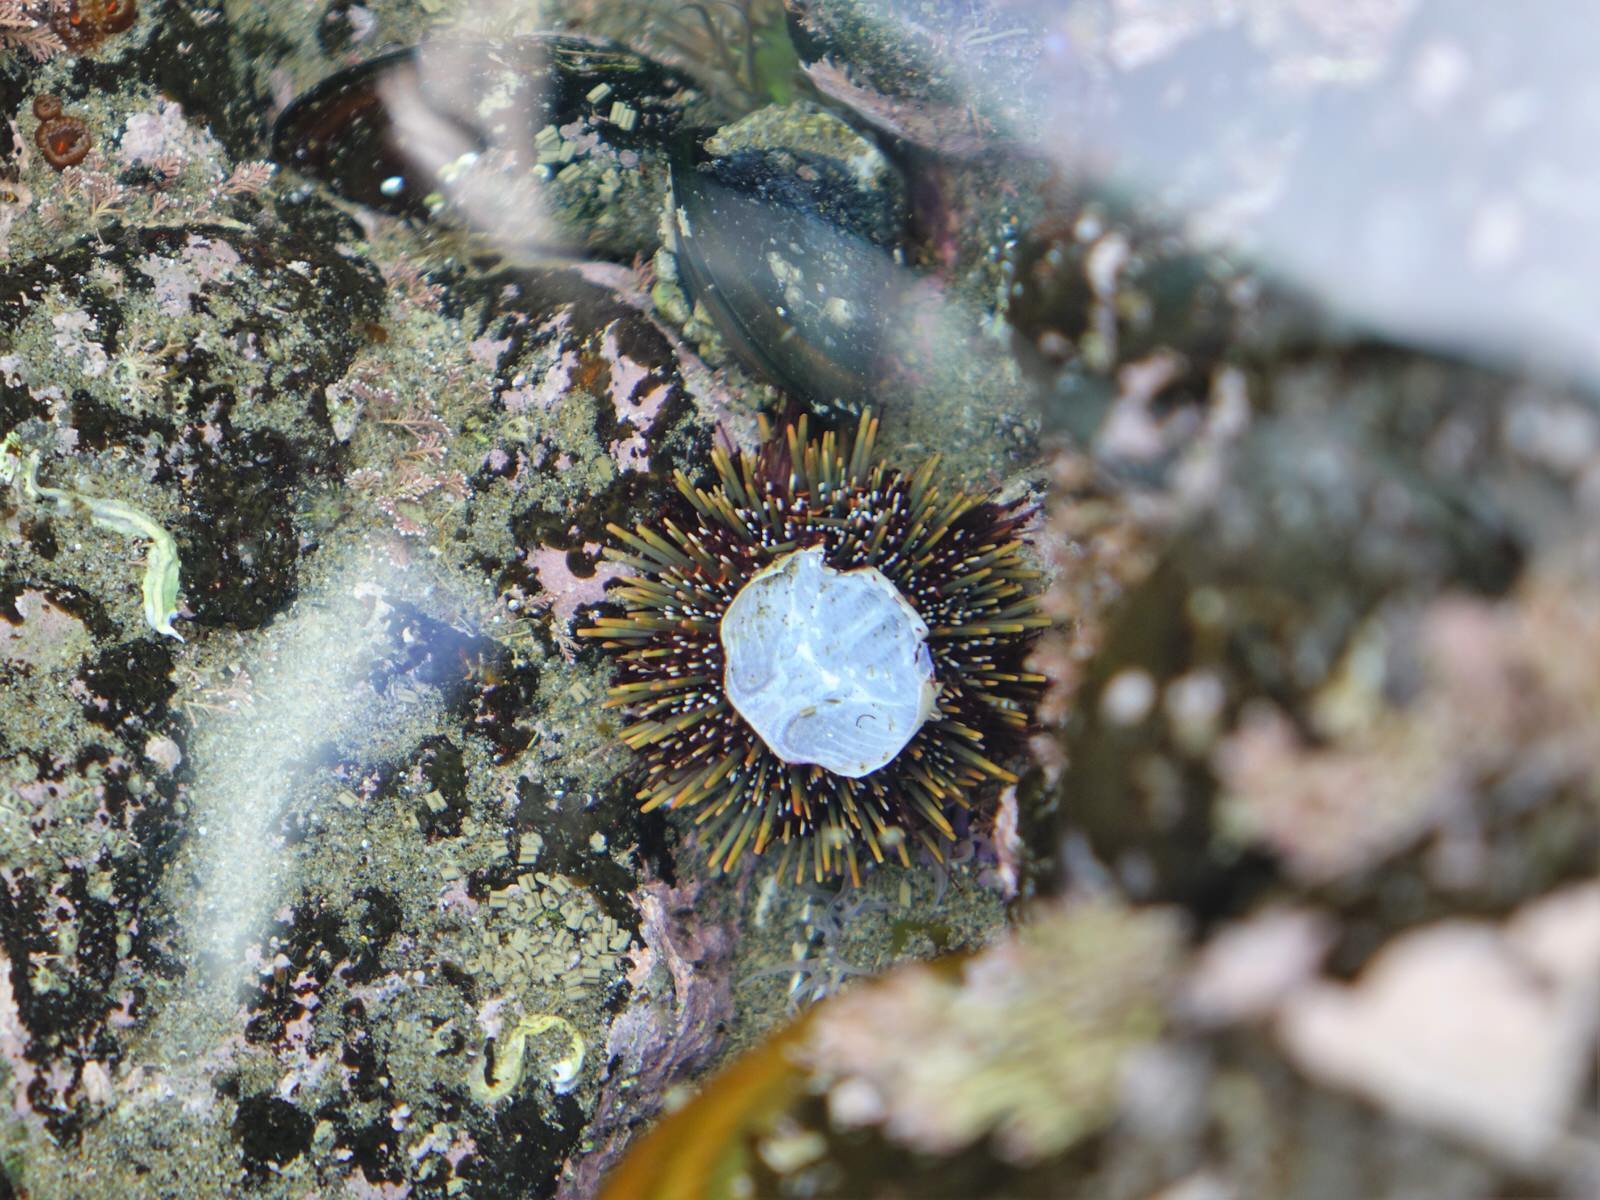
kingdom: Animalia
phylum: Echinodermata
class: Echinoidea
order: Camarodonta
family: Echinometridae
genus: Evechinus
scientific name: Evechinus chloroticus
